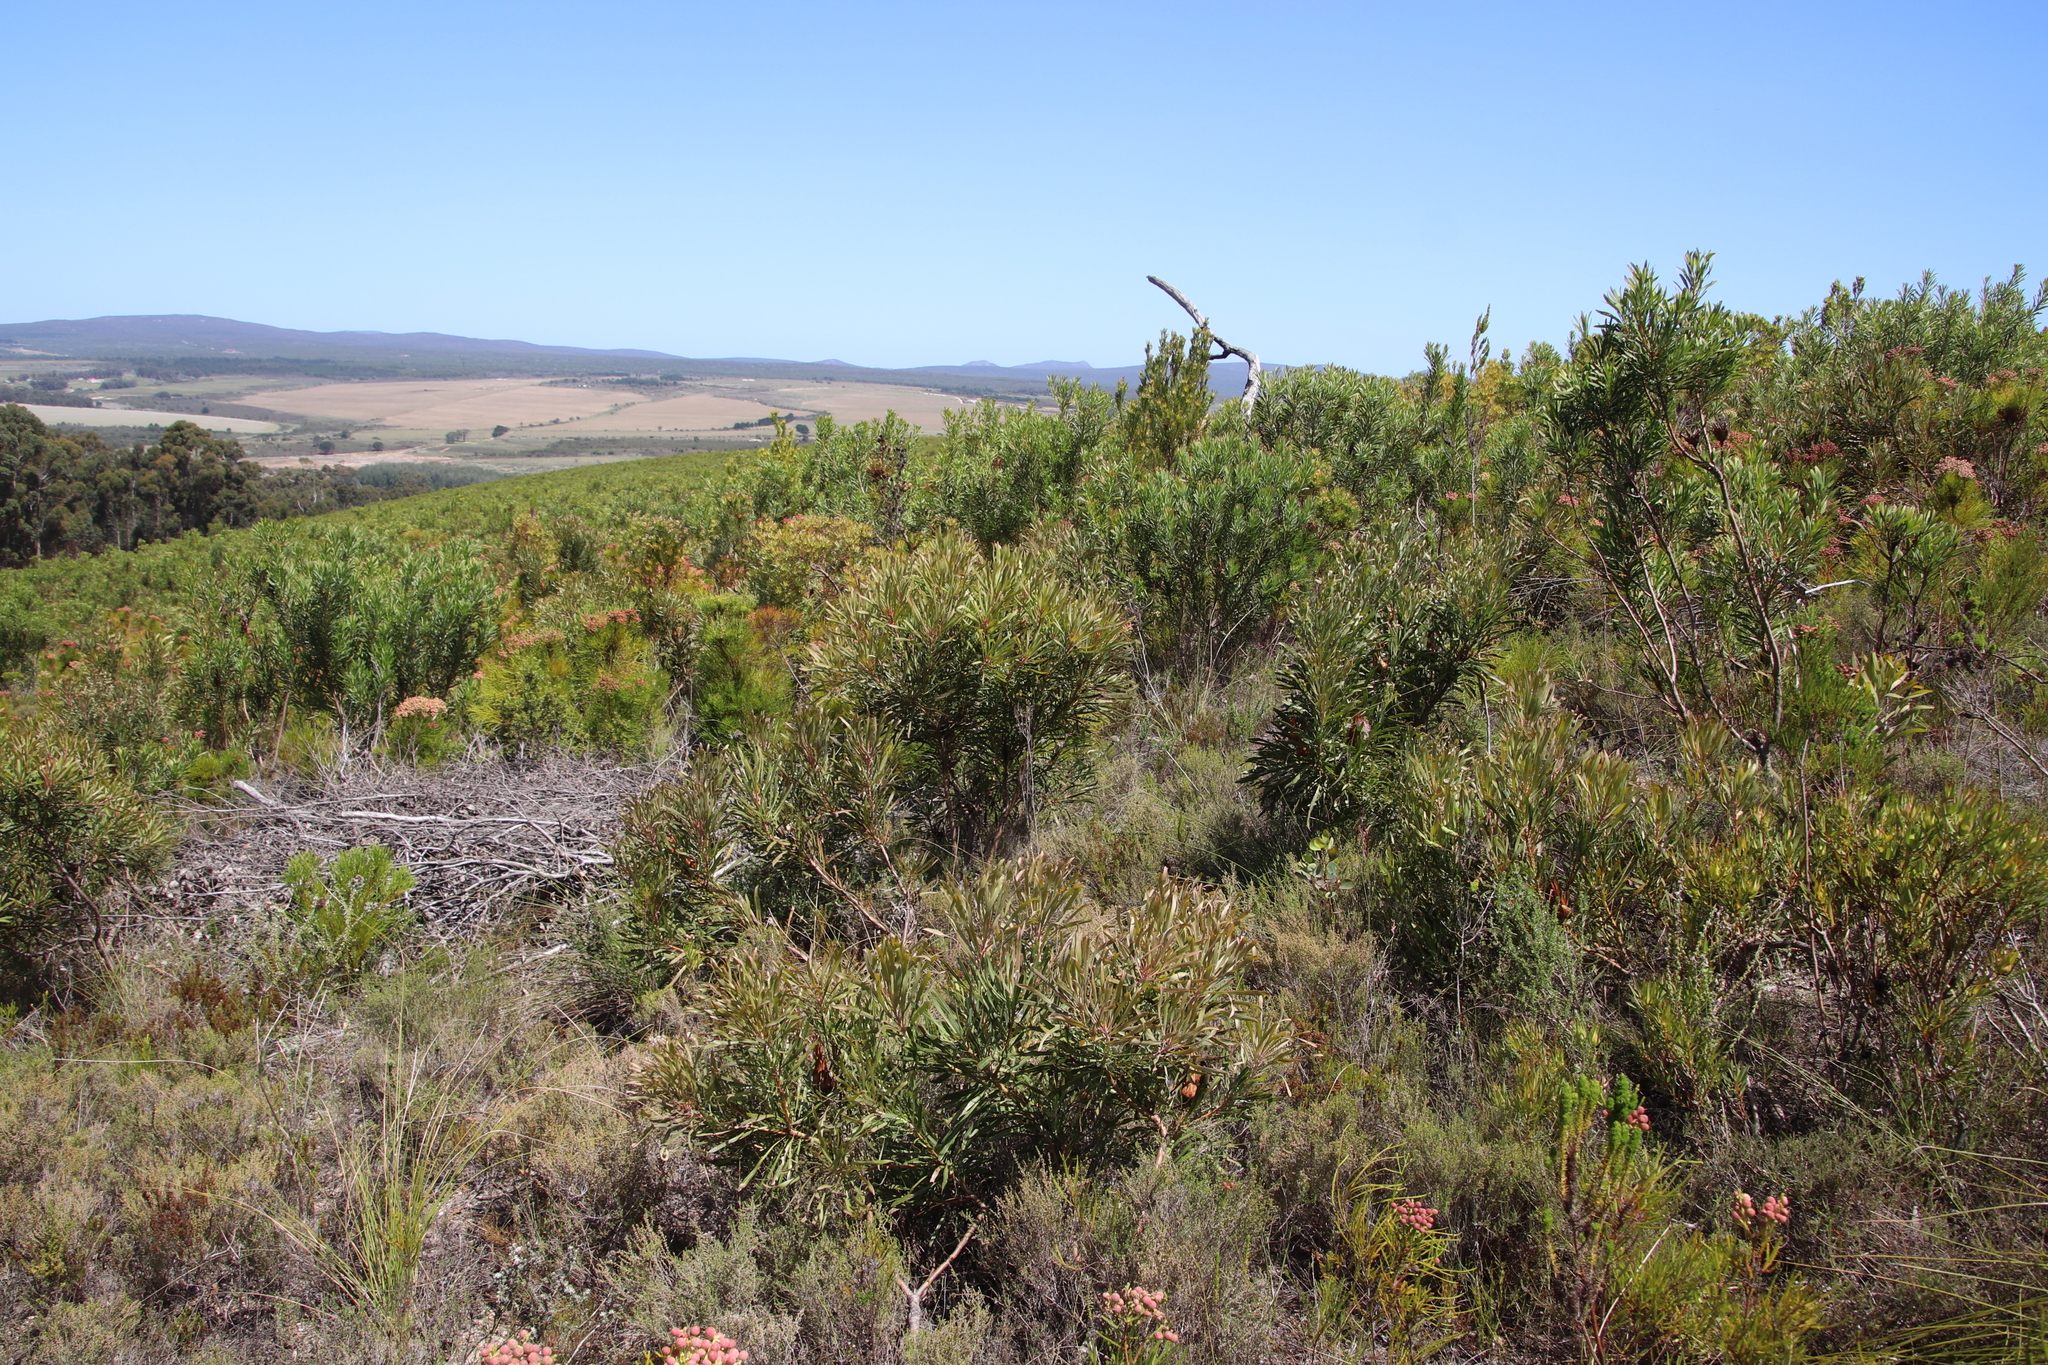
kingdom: Plantae
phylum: Tracheophyta
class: Magnoliopsida
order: Proteales
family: Proteaceae
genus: Protea
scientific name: Protea longifolia
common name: Long-leaf sugarbush
